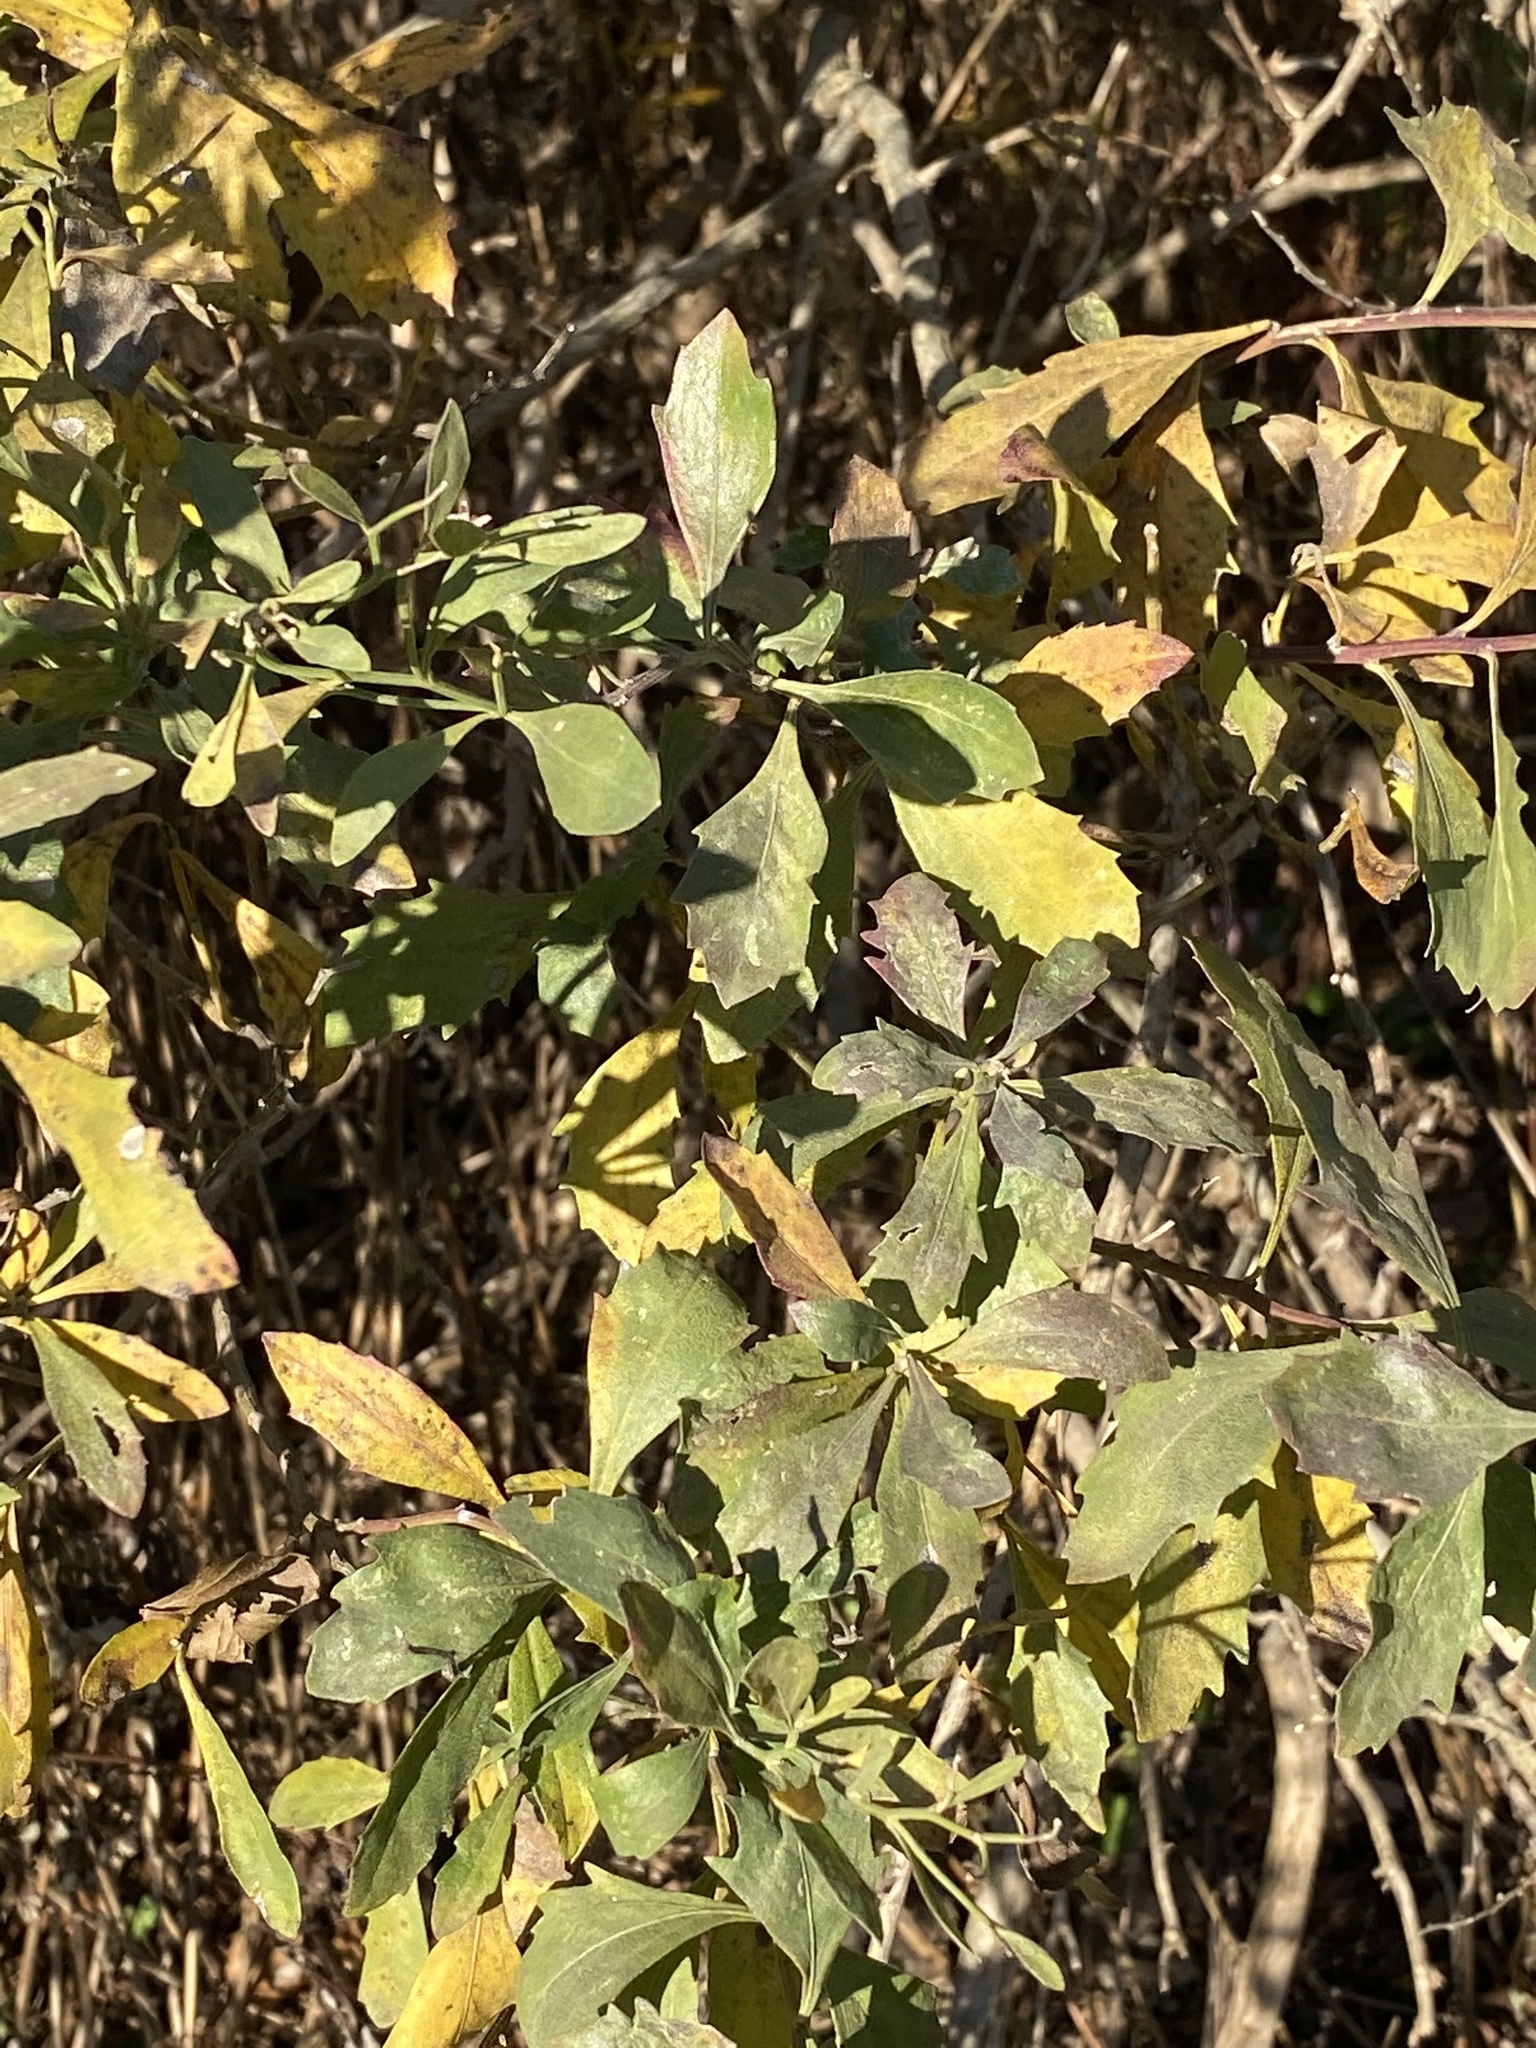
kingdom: Plantae
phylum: Tracheophyta
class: Magnoliopsida
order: Asterales
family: Asteraceae
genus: Baccharis
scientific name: Baccharis halimifolia
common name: Eastern baccharis
